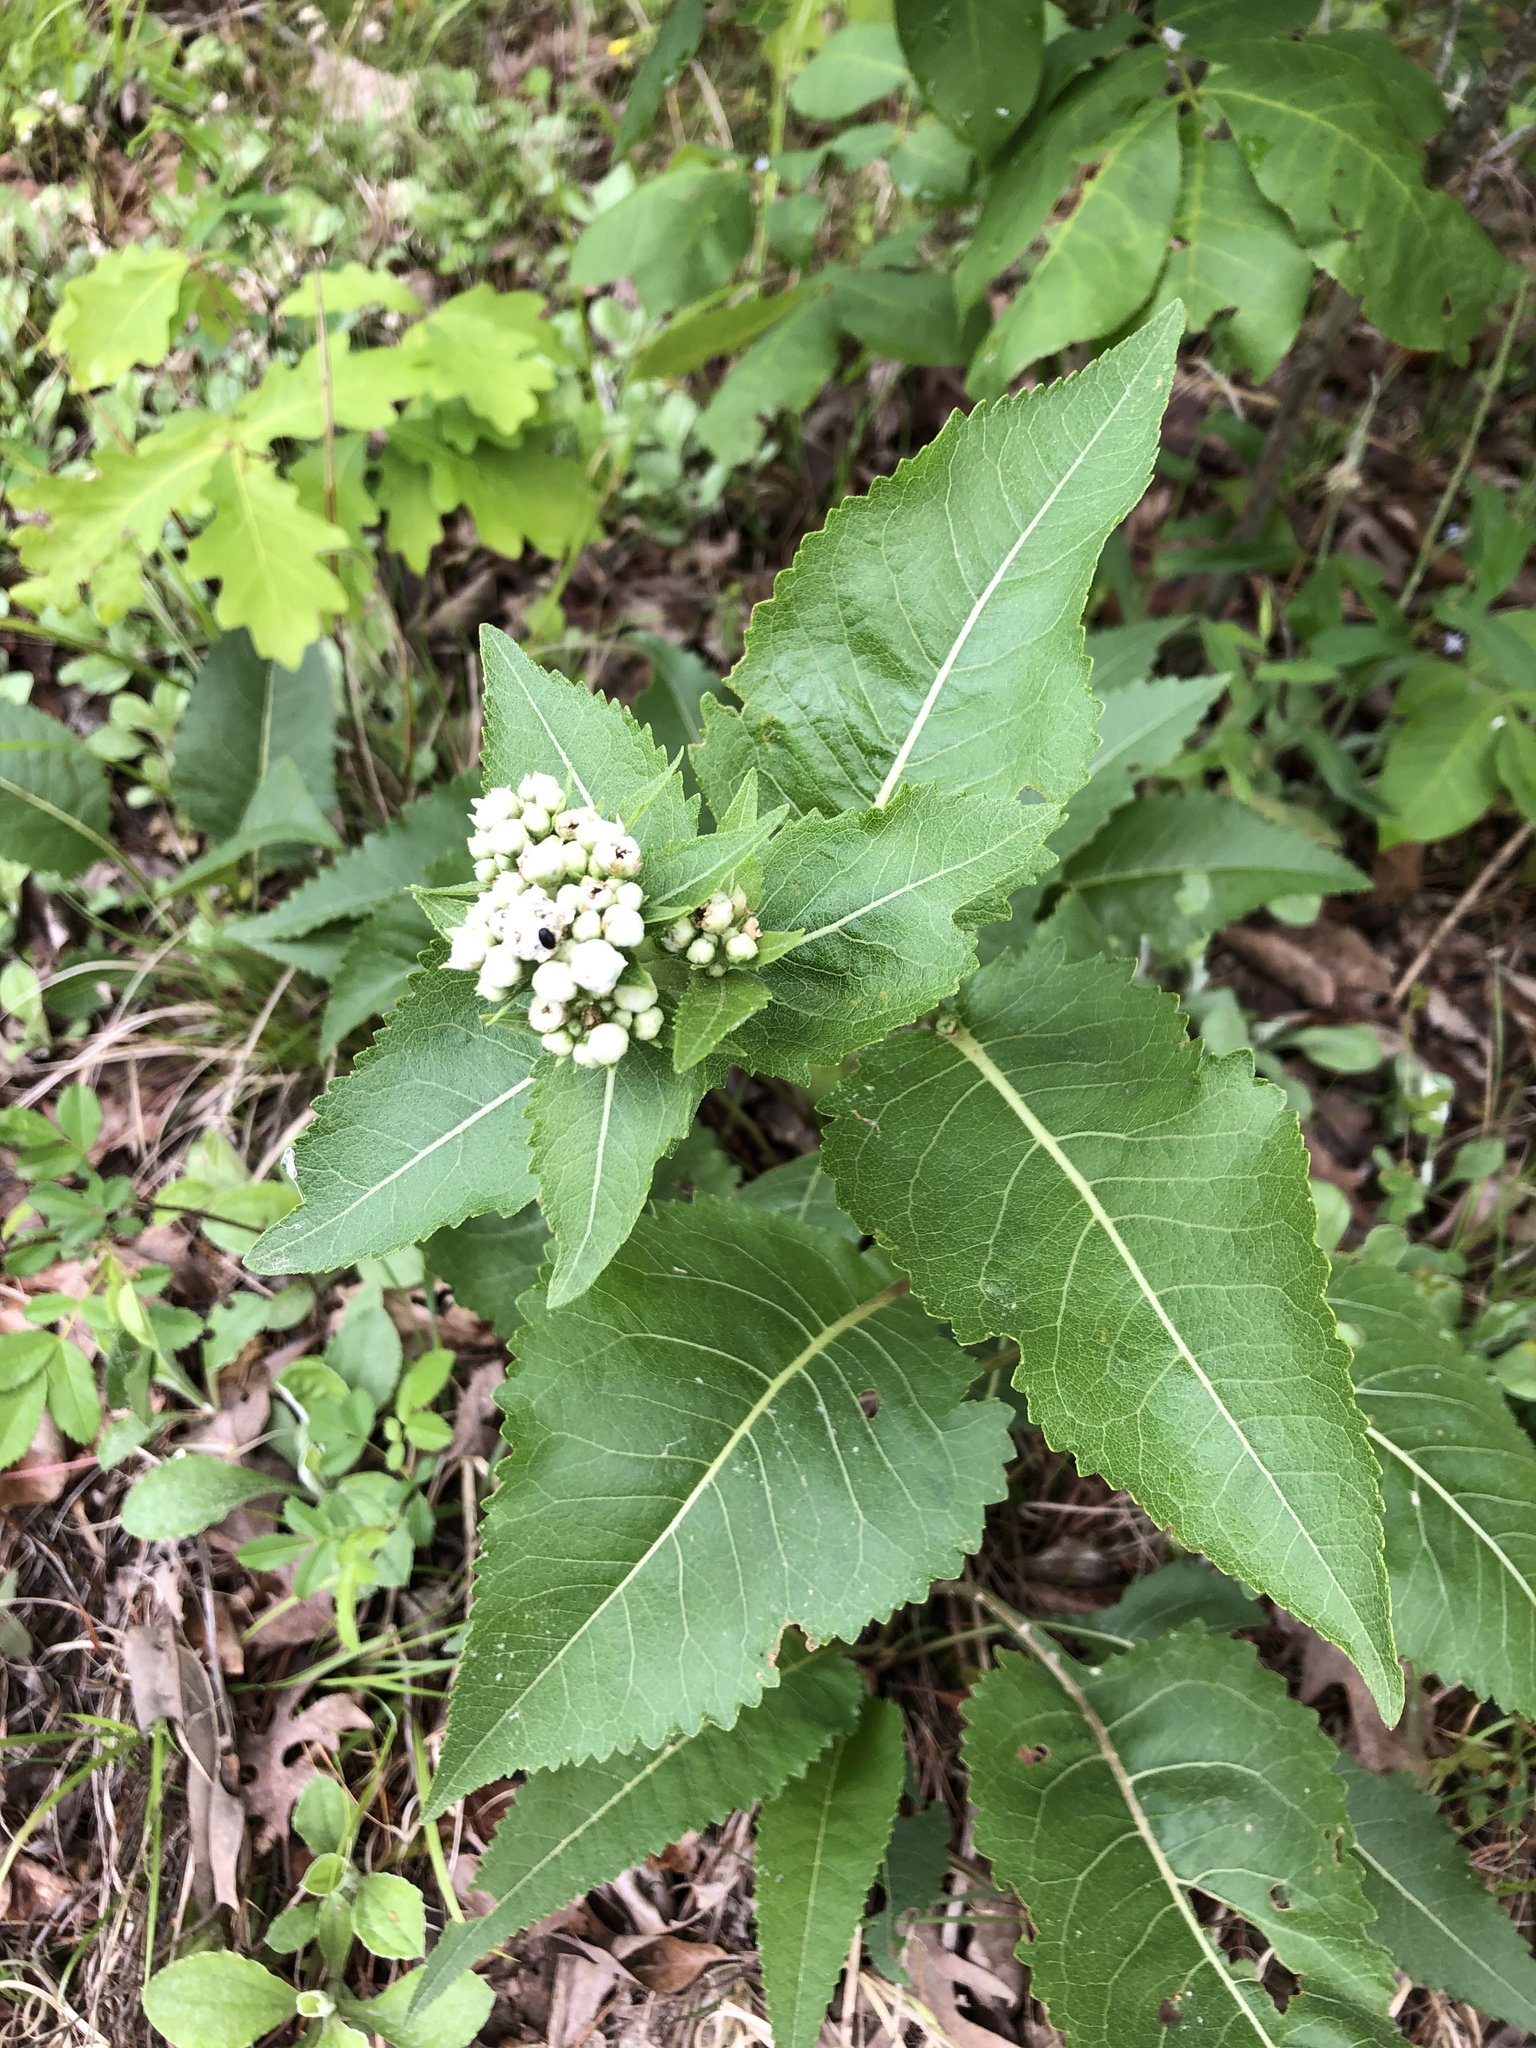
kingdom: Plantae
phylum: Tracheophyta
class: Magnoliopsida
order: Asterales
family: Asteraceae
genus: Parthenium
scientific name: Parthenium integrifolium
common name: American feverfew
